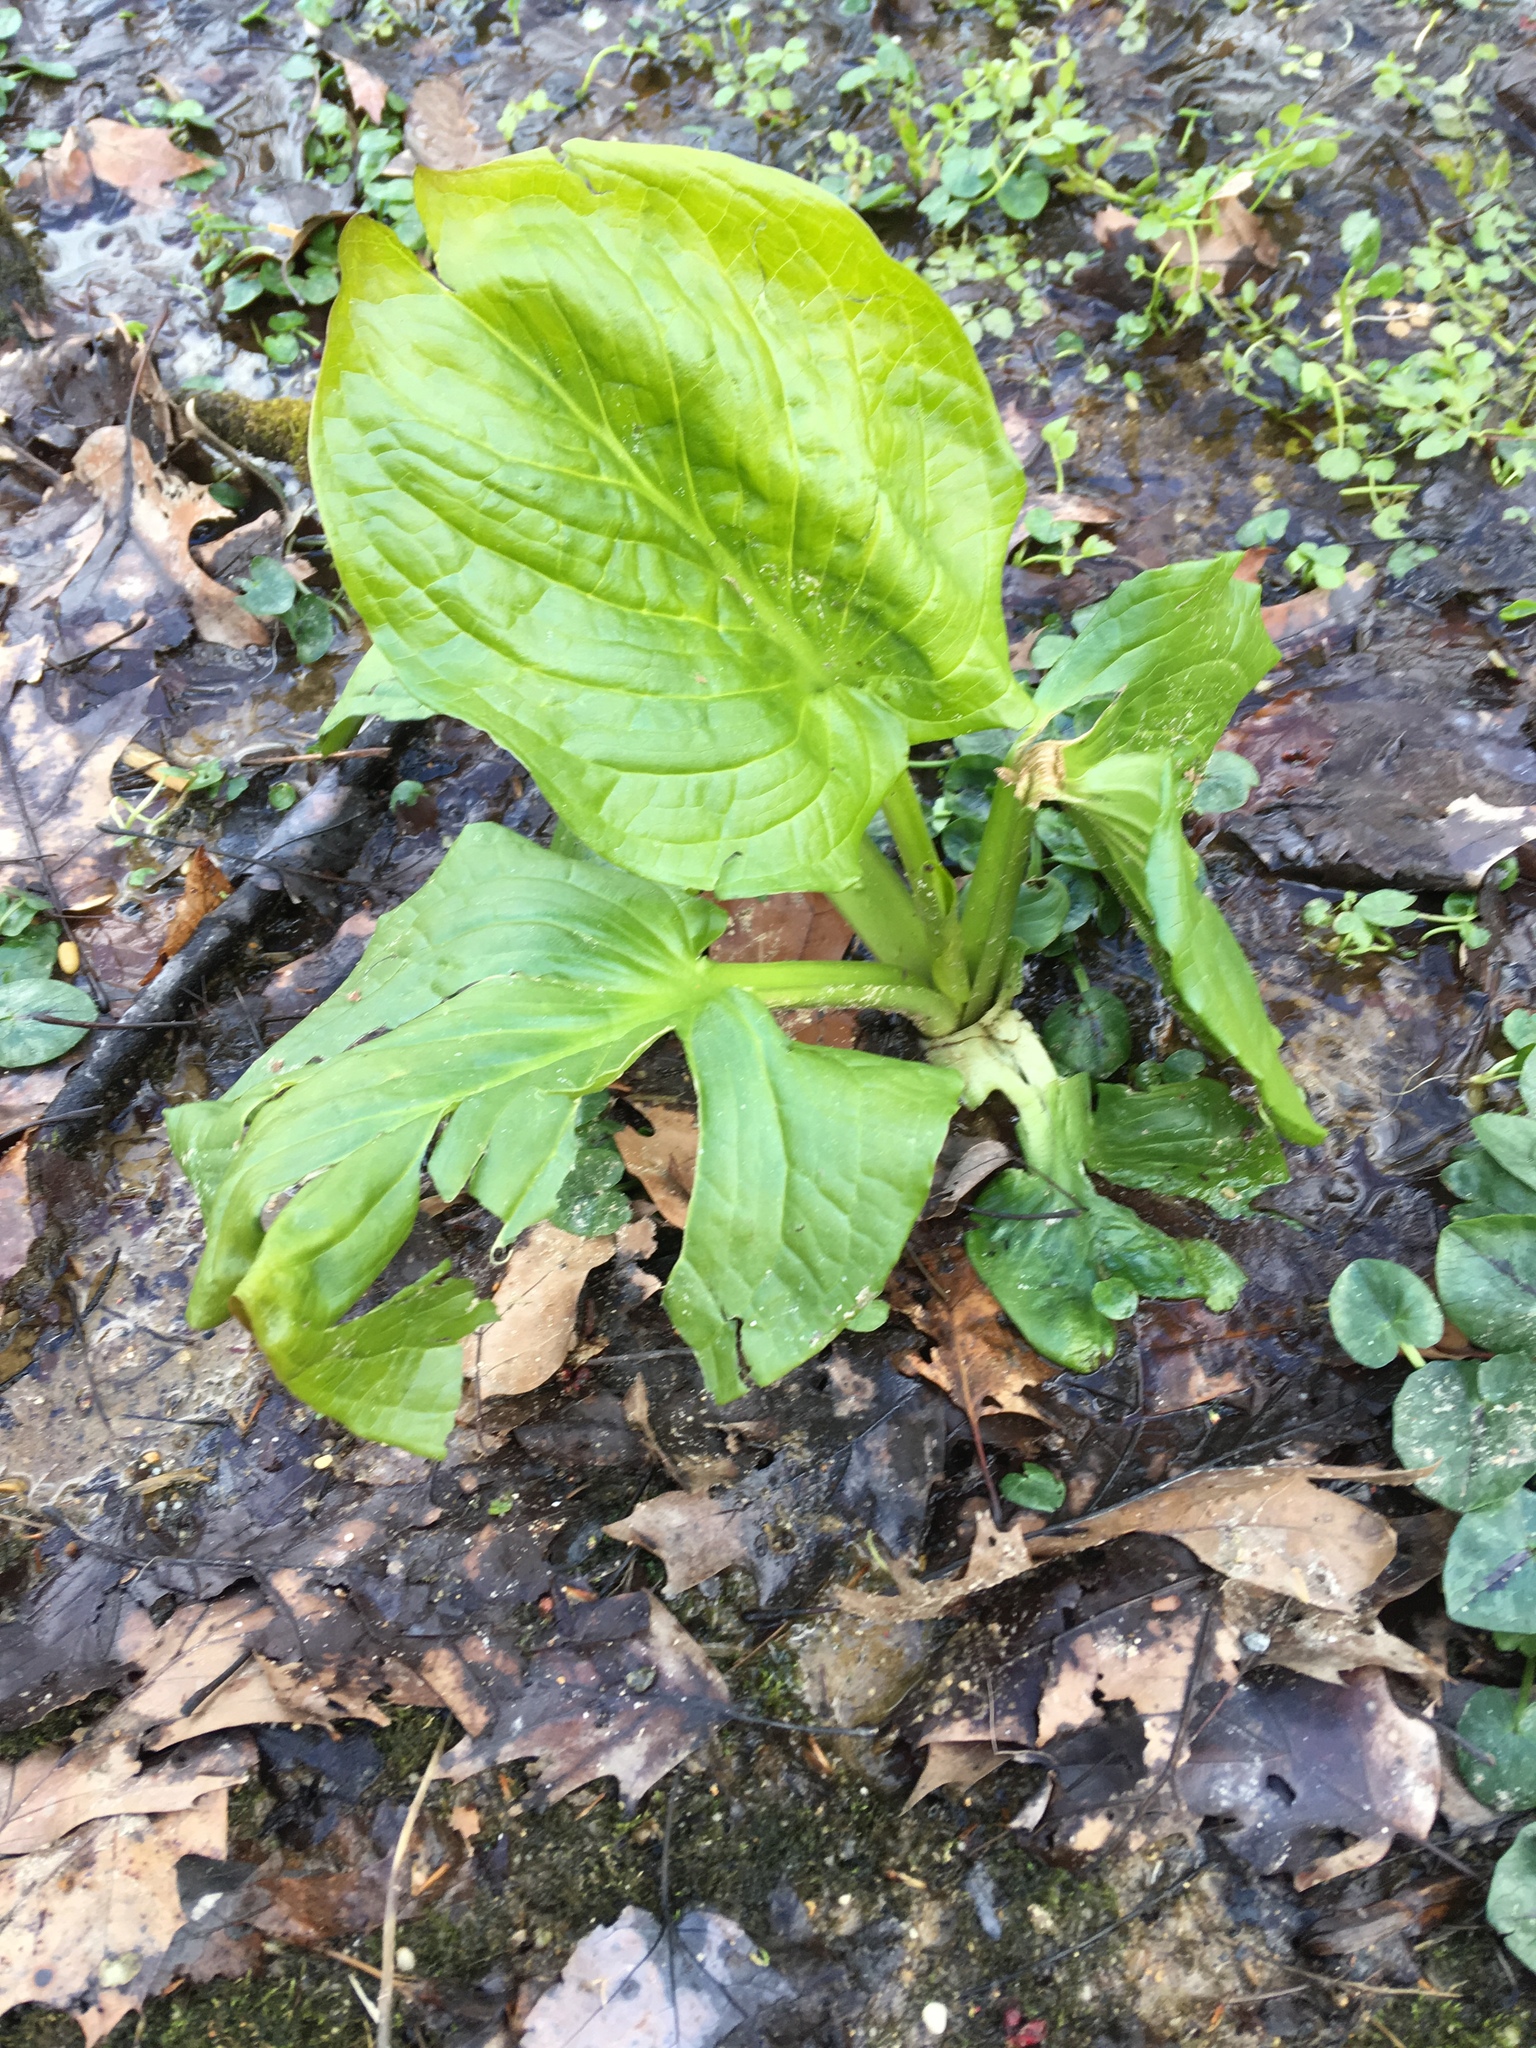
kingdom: Plantae
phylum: Tracheophyta
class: Liliopsida
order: Alismatales
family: Araceae
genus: Symplocarpus
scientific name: Symplocarpus foetidus
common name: Eastern skunk cabbage
